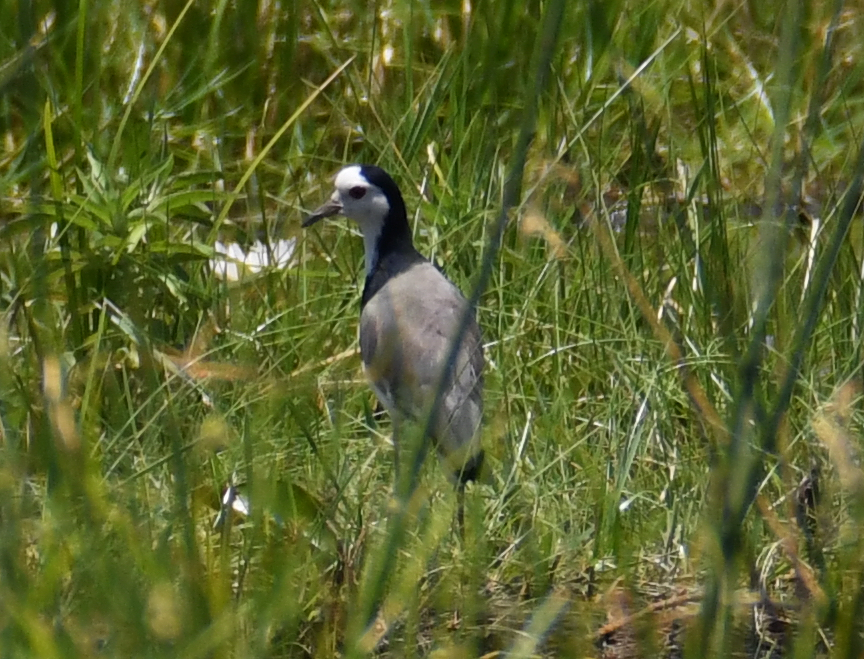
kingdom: Animalia
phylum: Chordata
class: Aves
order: Charadriiformes
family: Charadriidae
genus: Vanellus
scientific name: Vanellus crassirostris
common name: Long-toed lapwing
